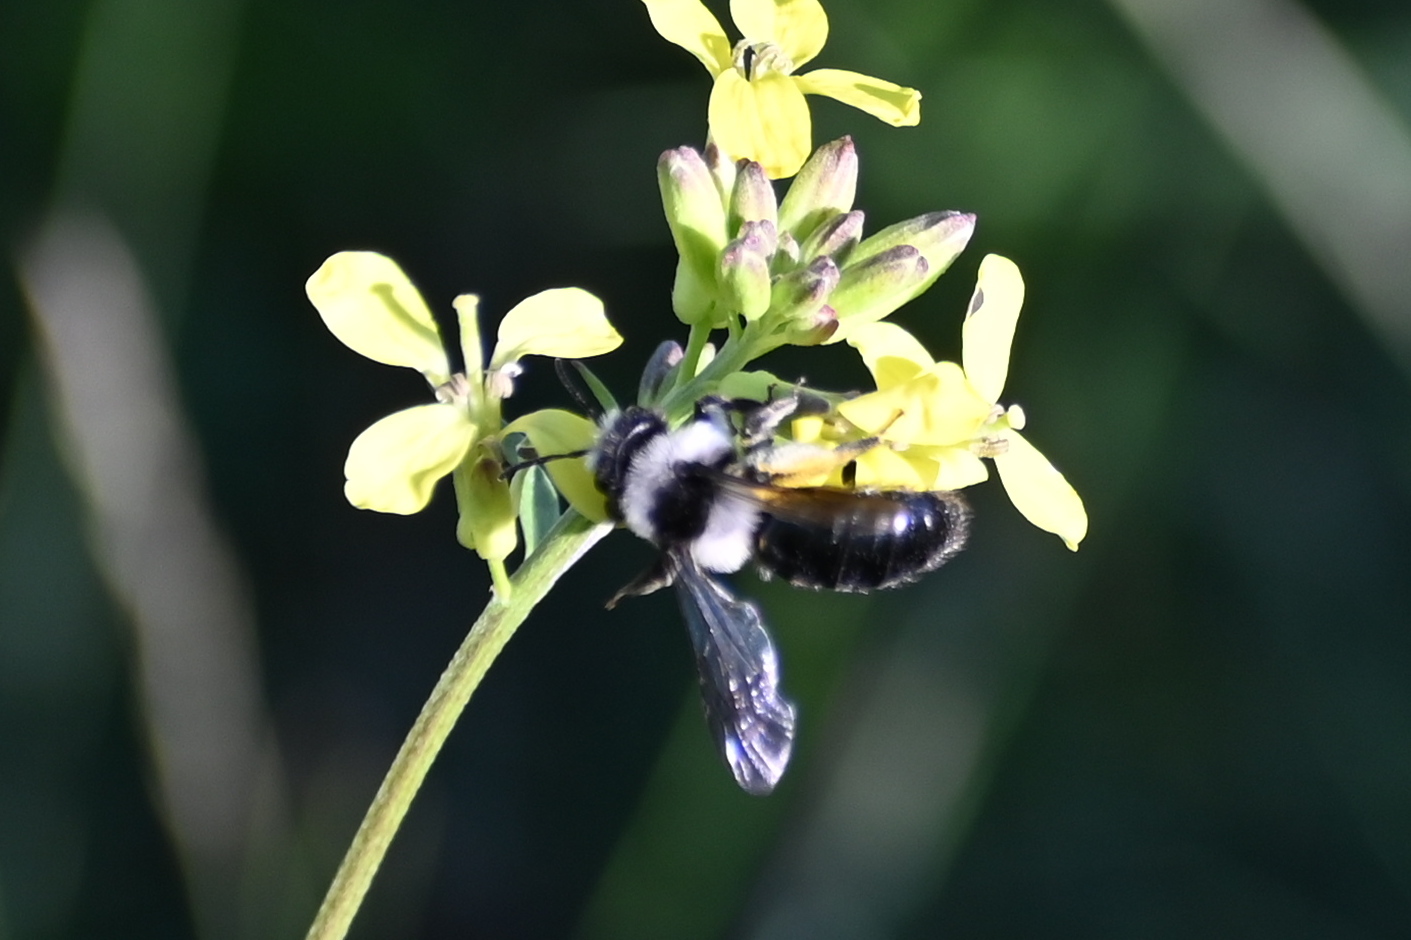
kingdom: Animalia
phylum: Arthropoda
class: Insecta
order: Hymenoptera
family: Andrenidae
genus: Andrena
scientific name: Andrena cineraria
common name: Ashy mining bee
